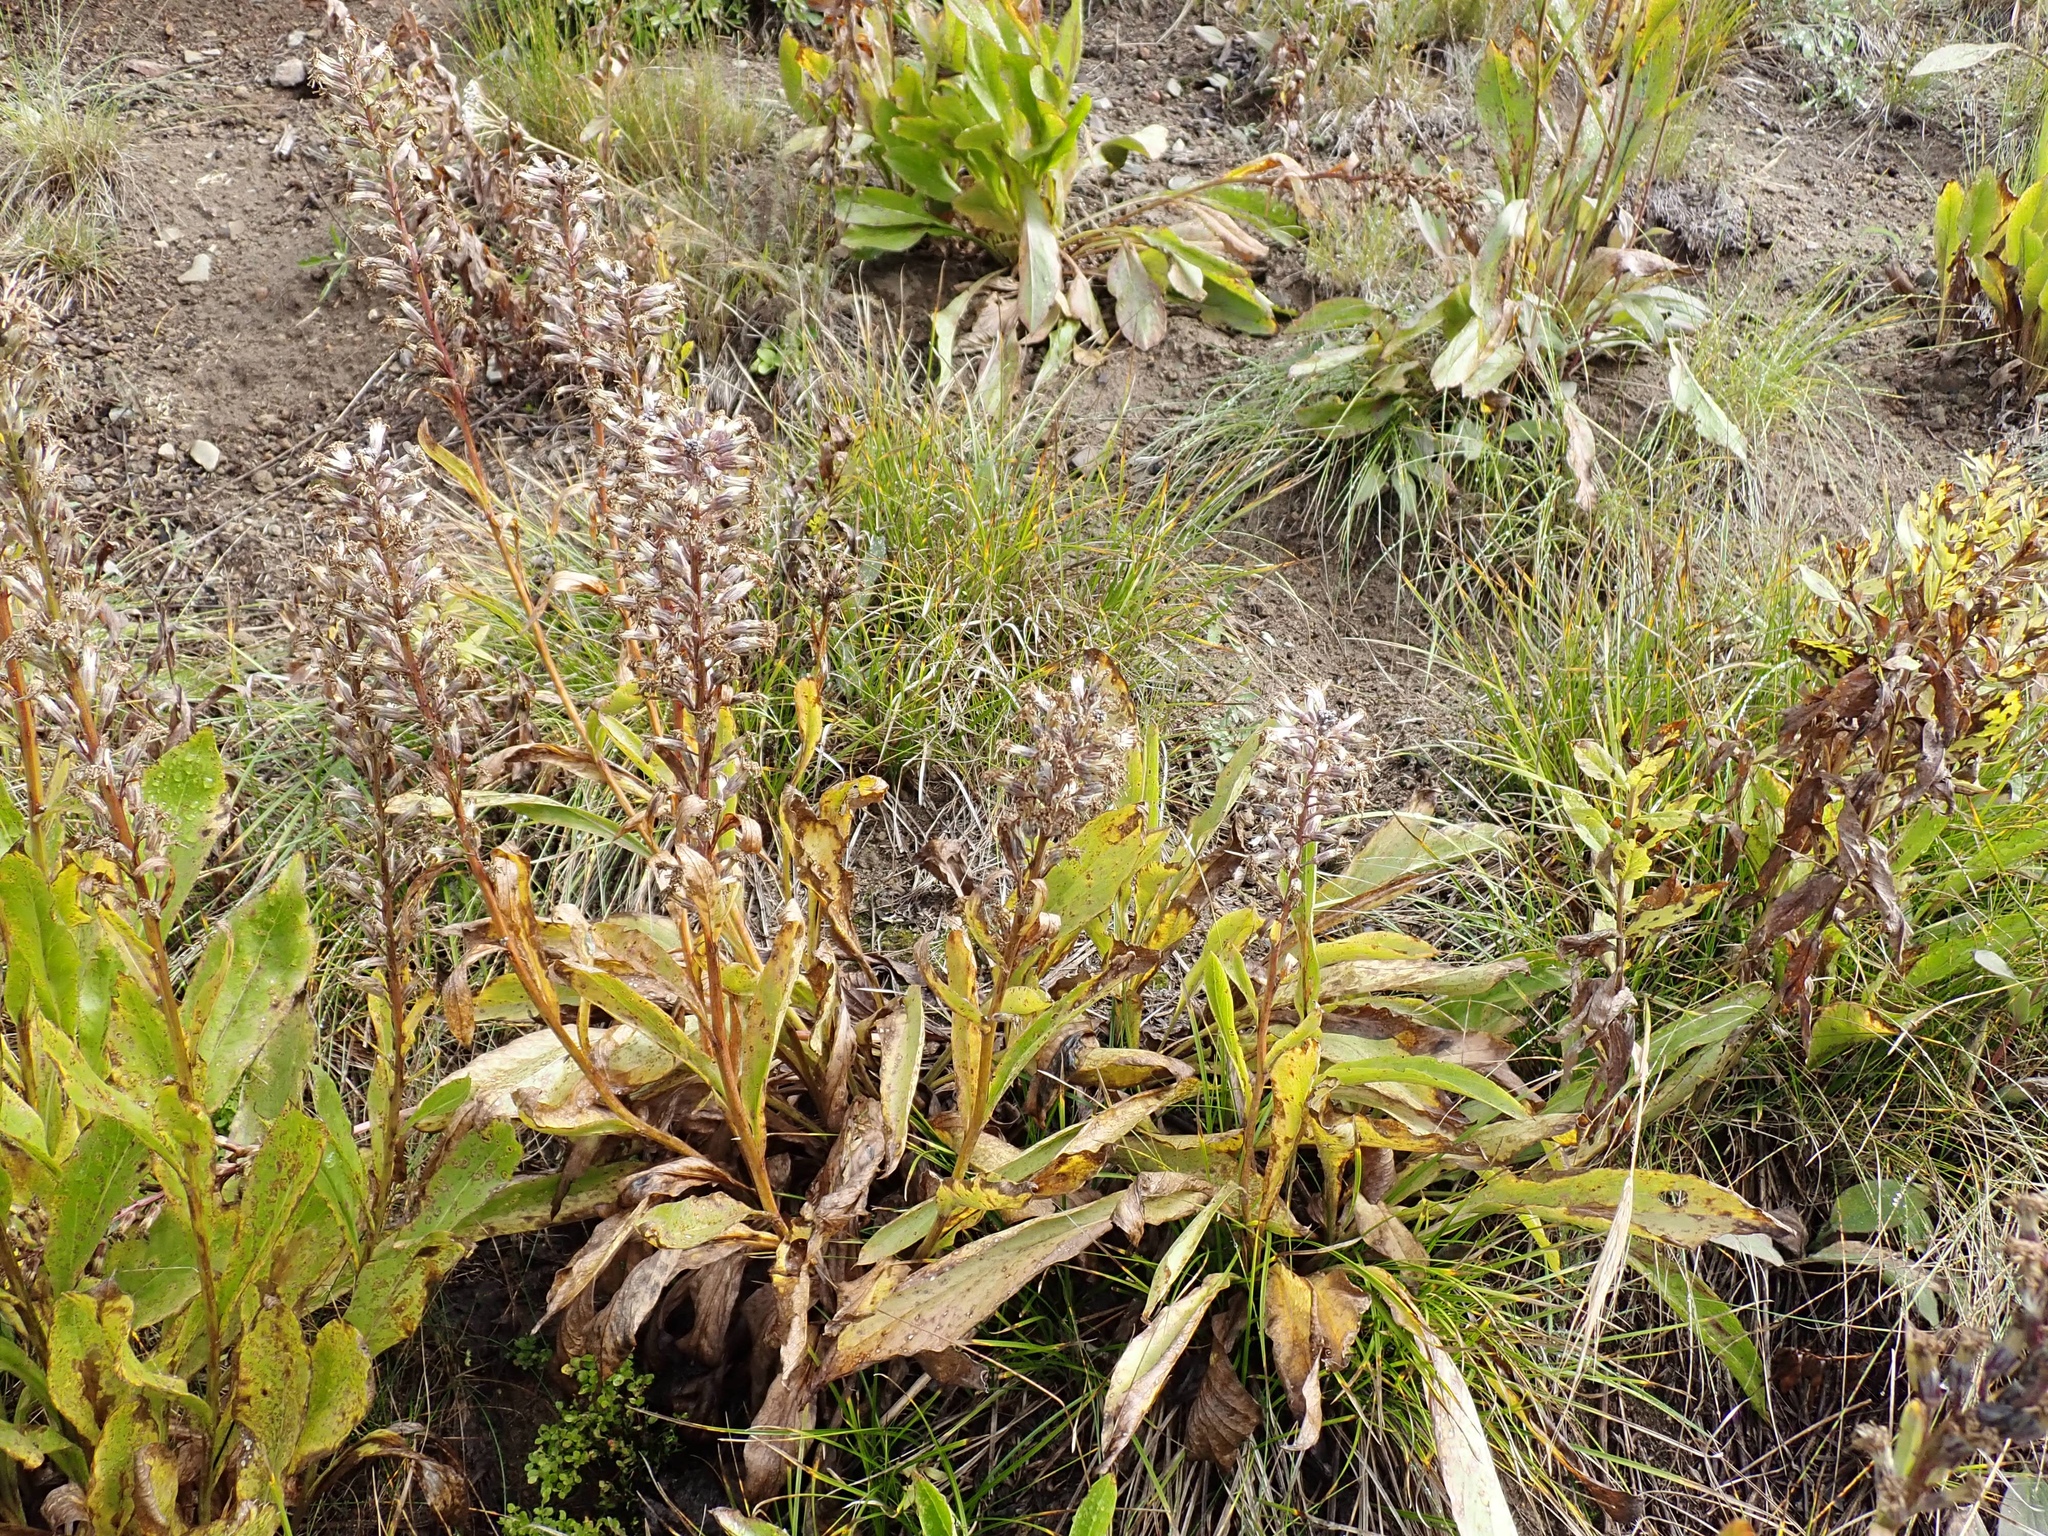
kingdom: Plantae
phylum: Tracheophyta
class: Magnoliopsida
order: Asterales
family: Asteraceae
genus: Rainiera
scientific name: Rainiera stricta
